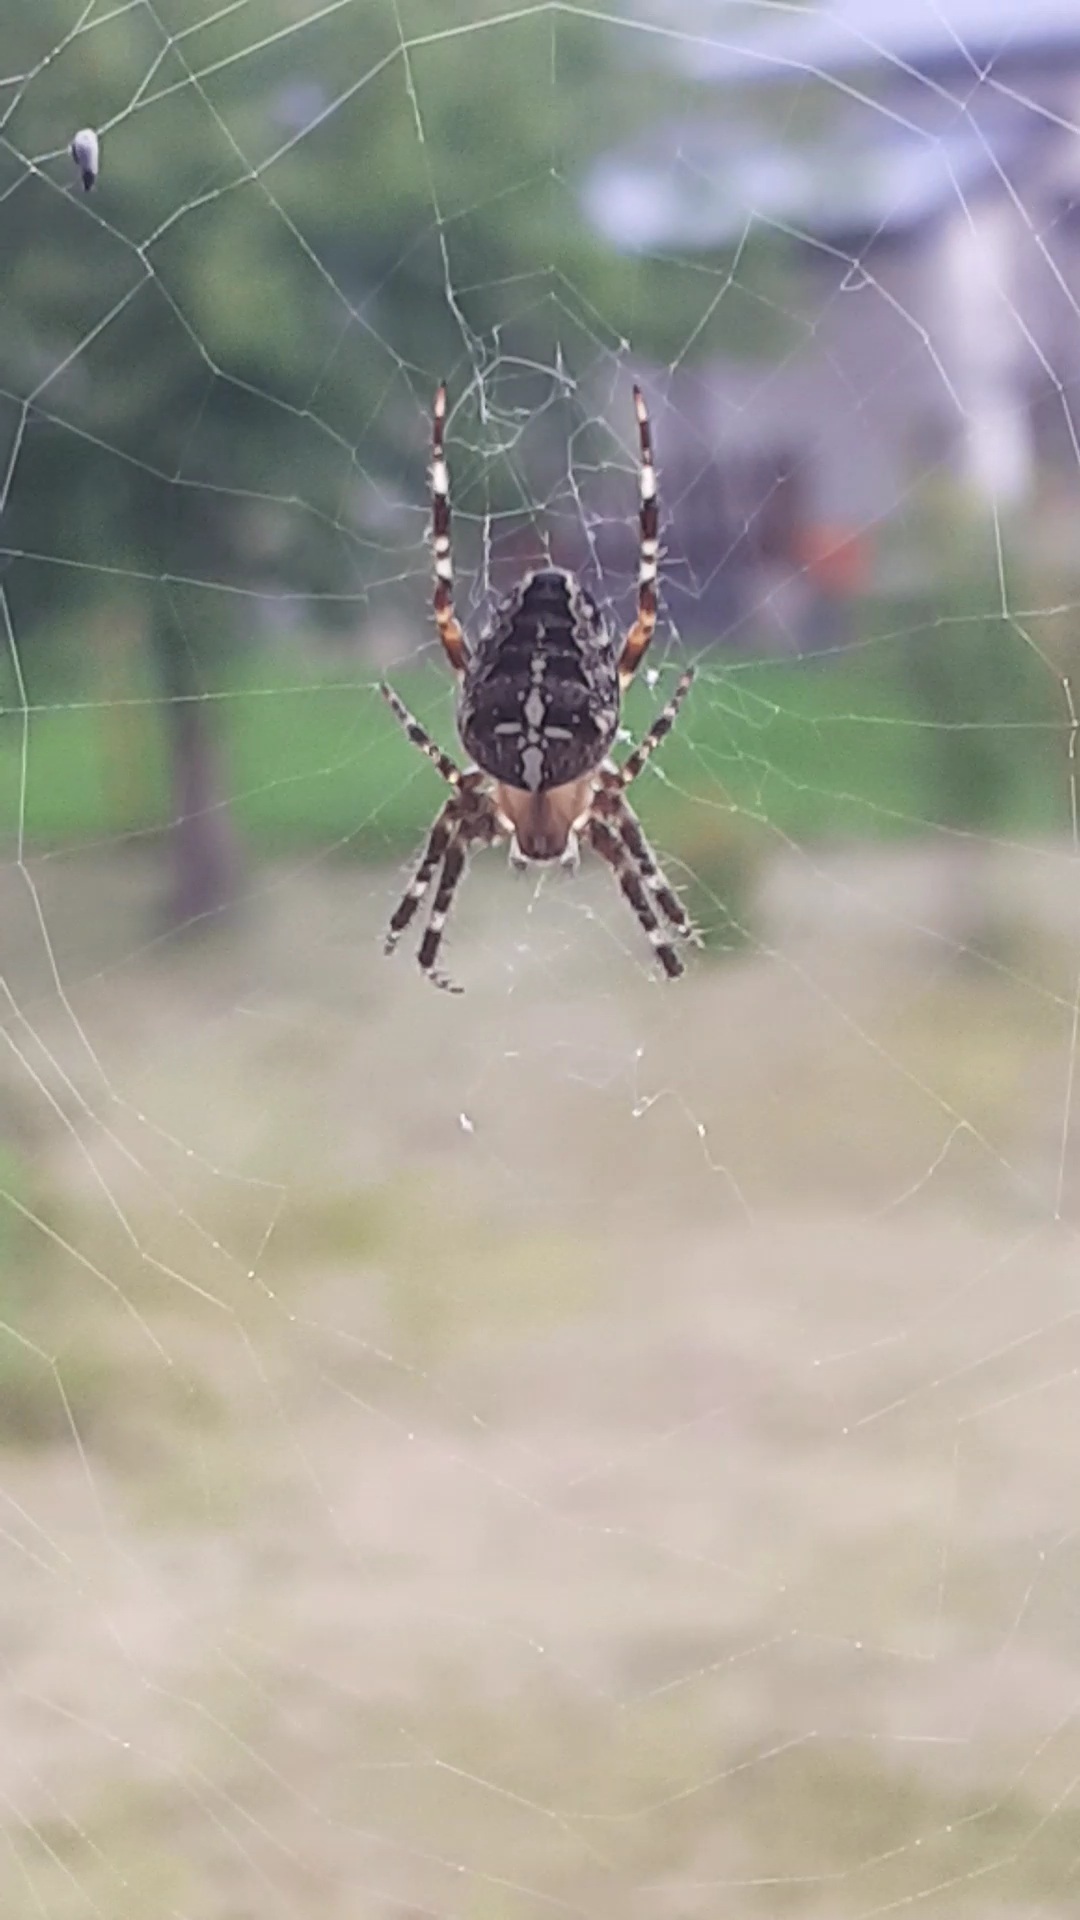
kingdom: Animalia
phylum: Arthropoda
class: Arachnida
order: Araneae
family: Araneidae
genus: Araneus
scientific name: Araneus diadematus
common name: Cross orbweaver
